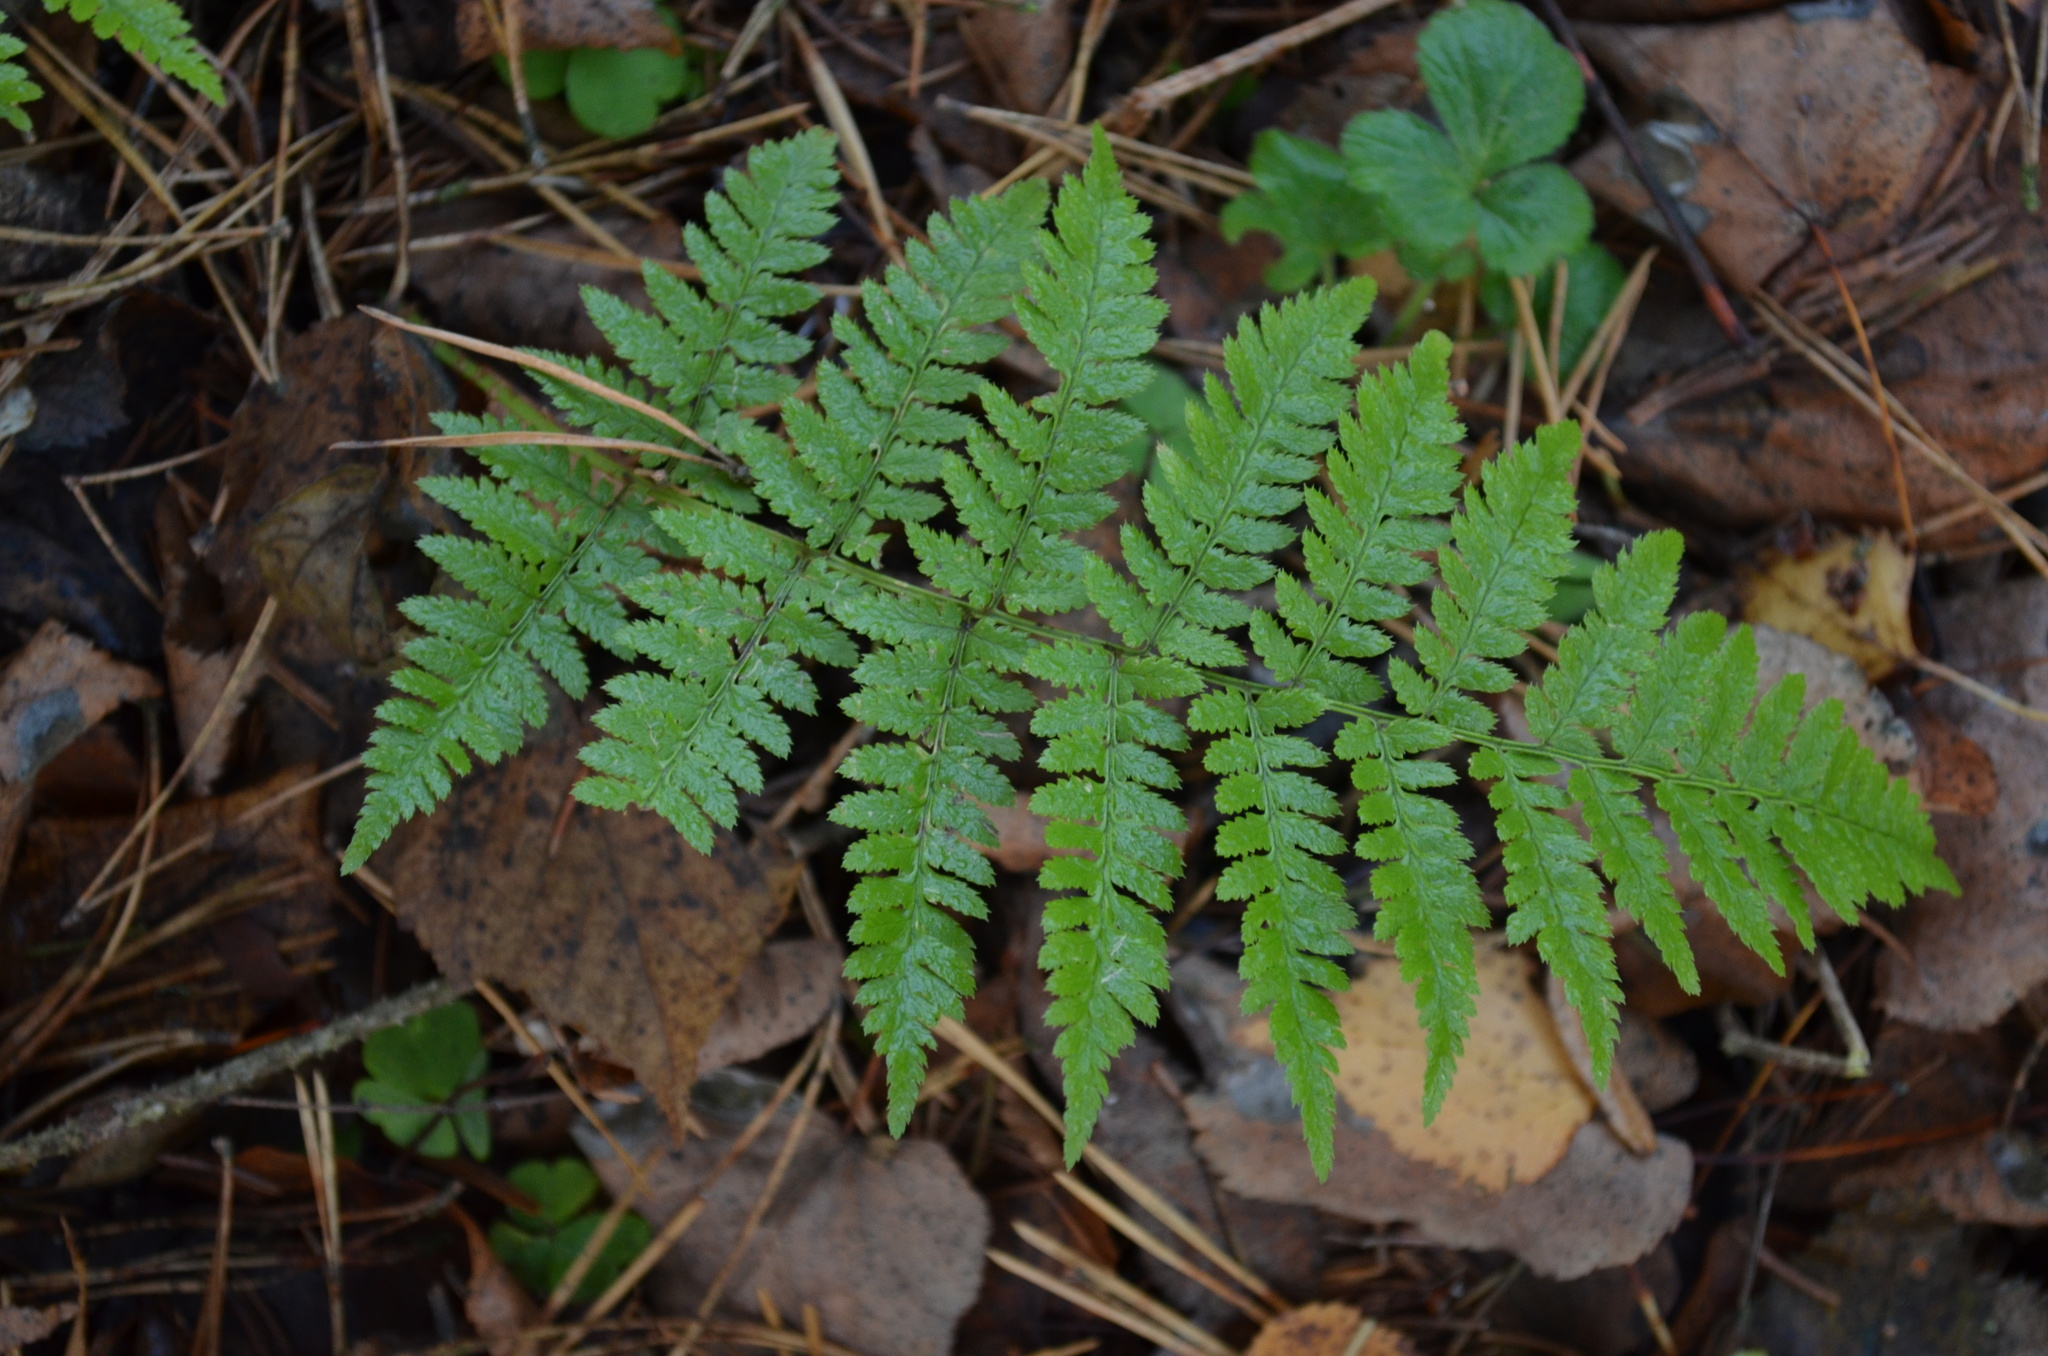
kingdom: Plantae
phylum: Tracheophyta
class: Polypodiopsida
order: Polypodiales
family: Dryopteridaceae
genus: Dryopteris
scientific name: Dryopteris carthusiana
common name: Narrow buckler-fern
